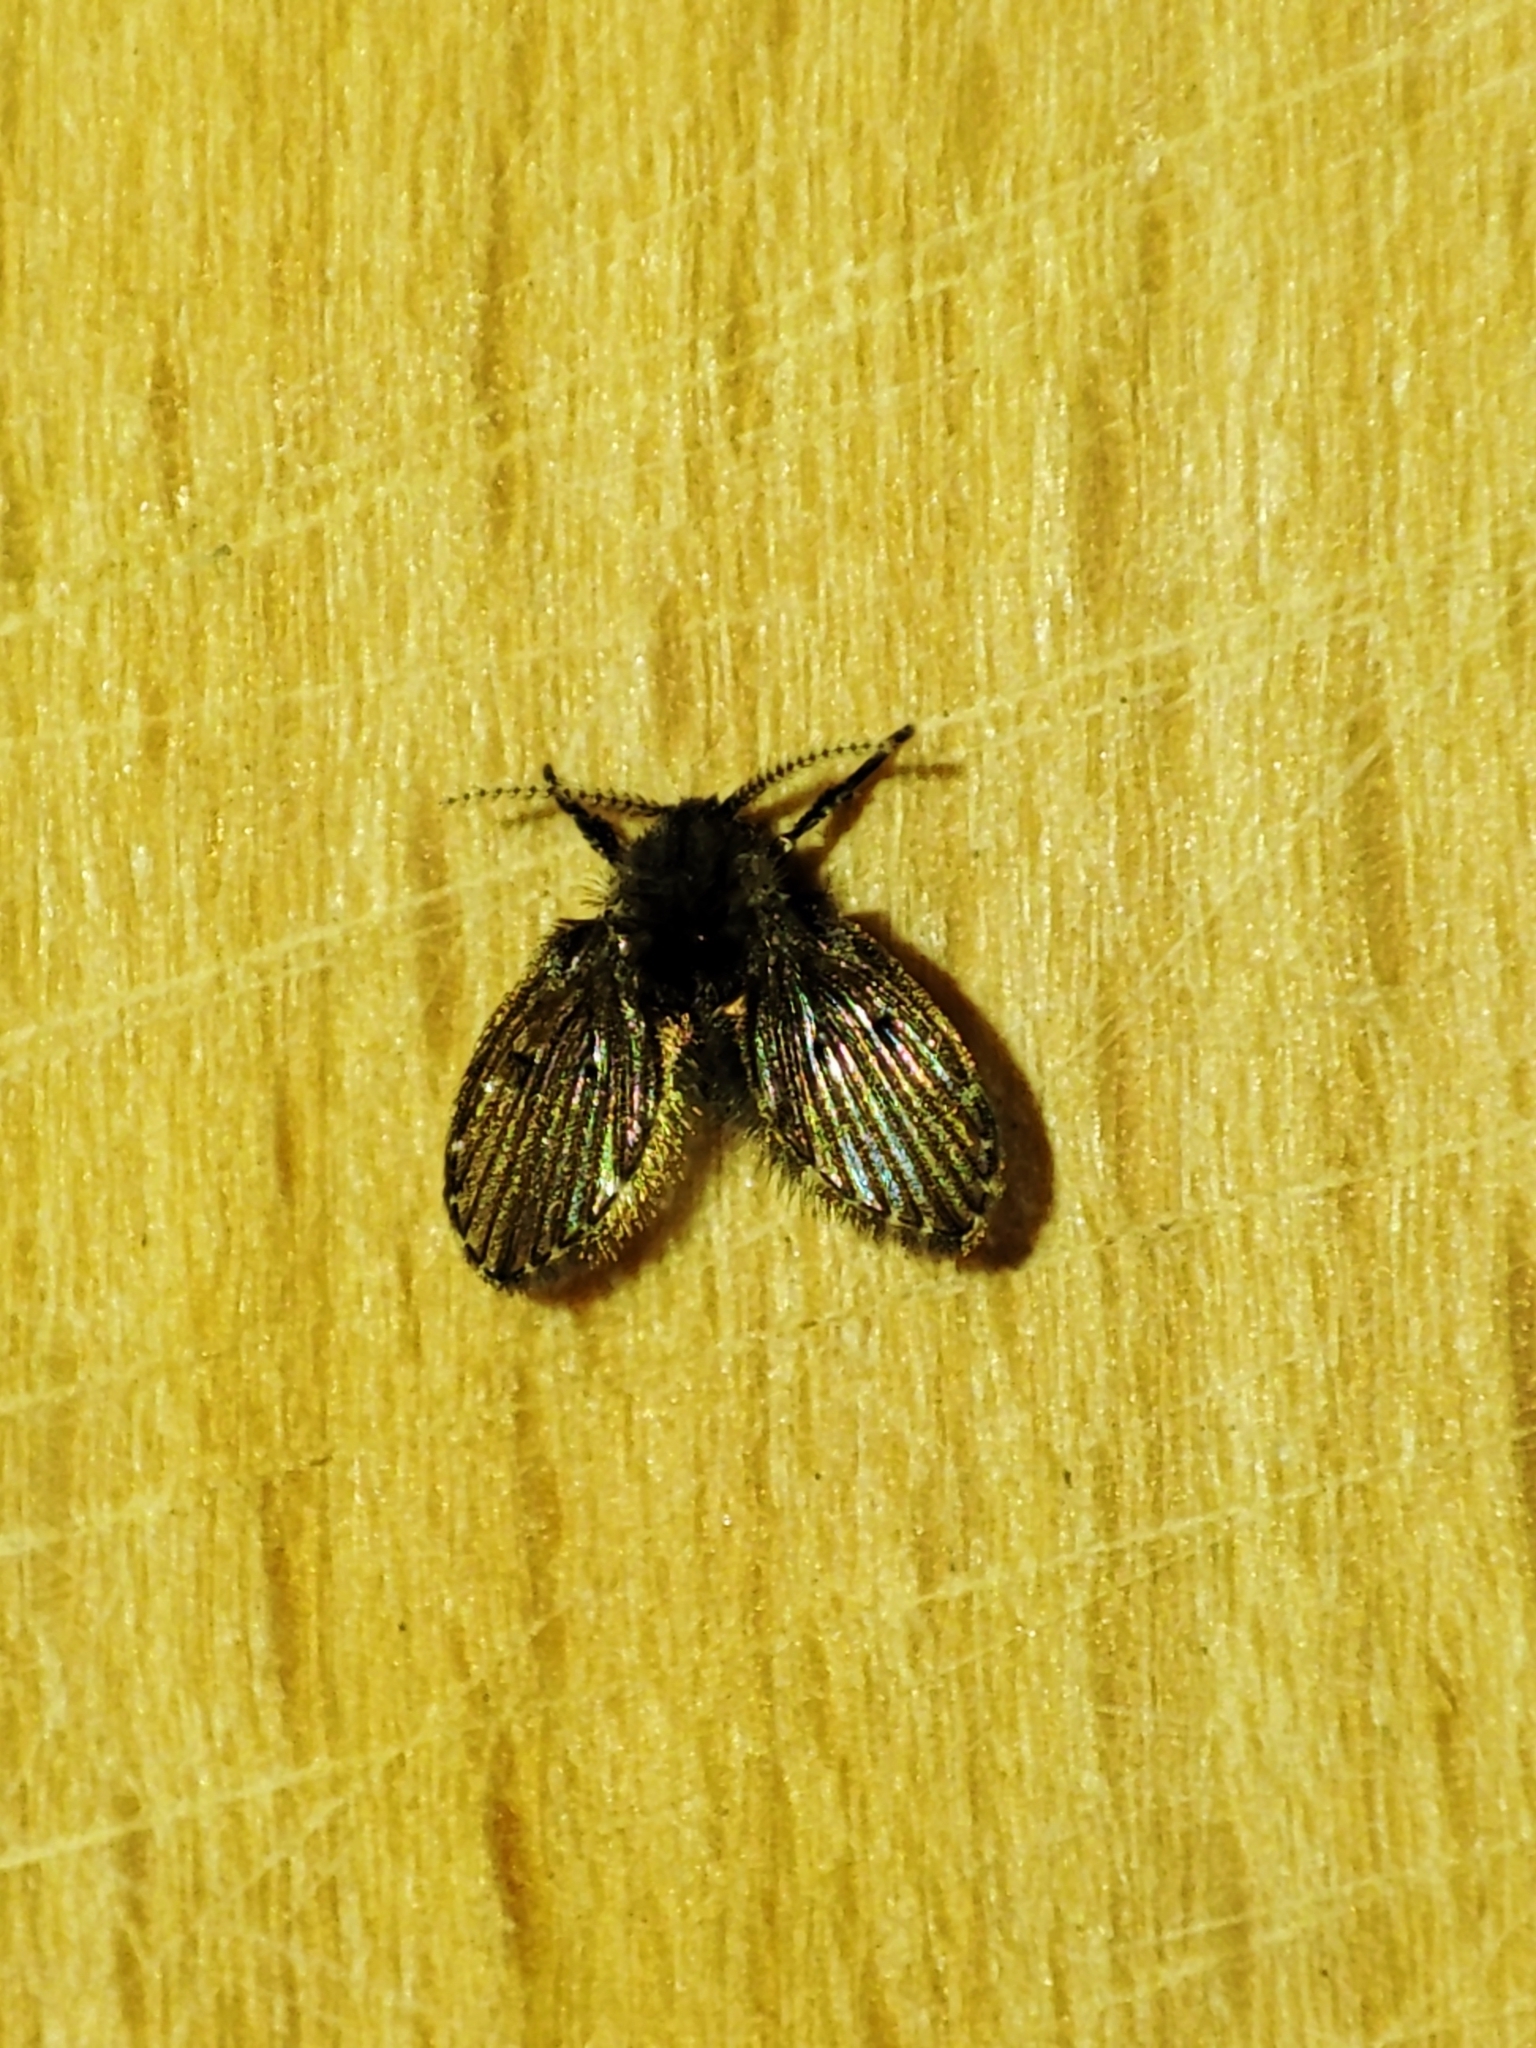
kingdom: Animalia
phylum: Arthropoda
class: Insecta
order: Diptera
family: Psychodidae
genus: Clogmia
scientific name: Clogmia albipunctatus
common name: White-spotted moth fly
